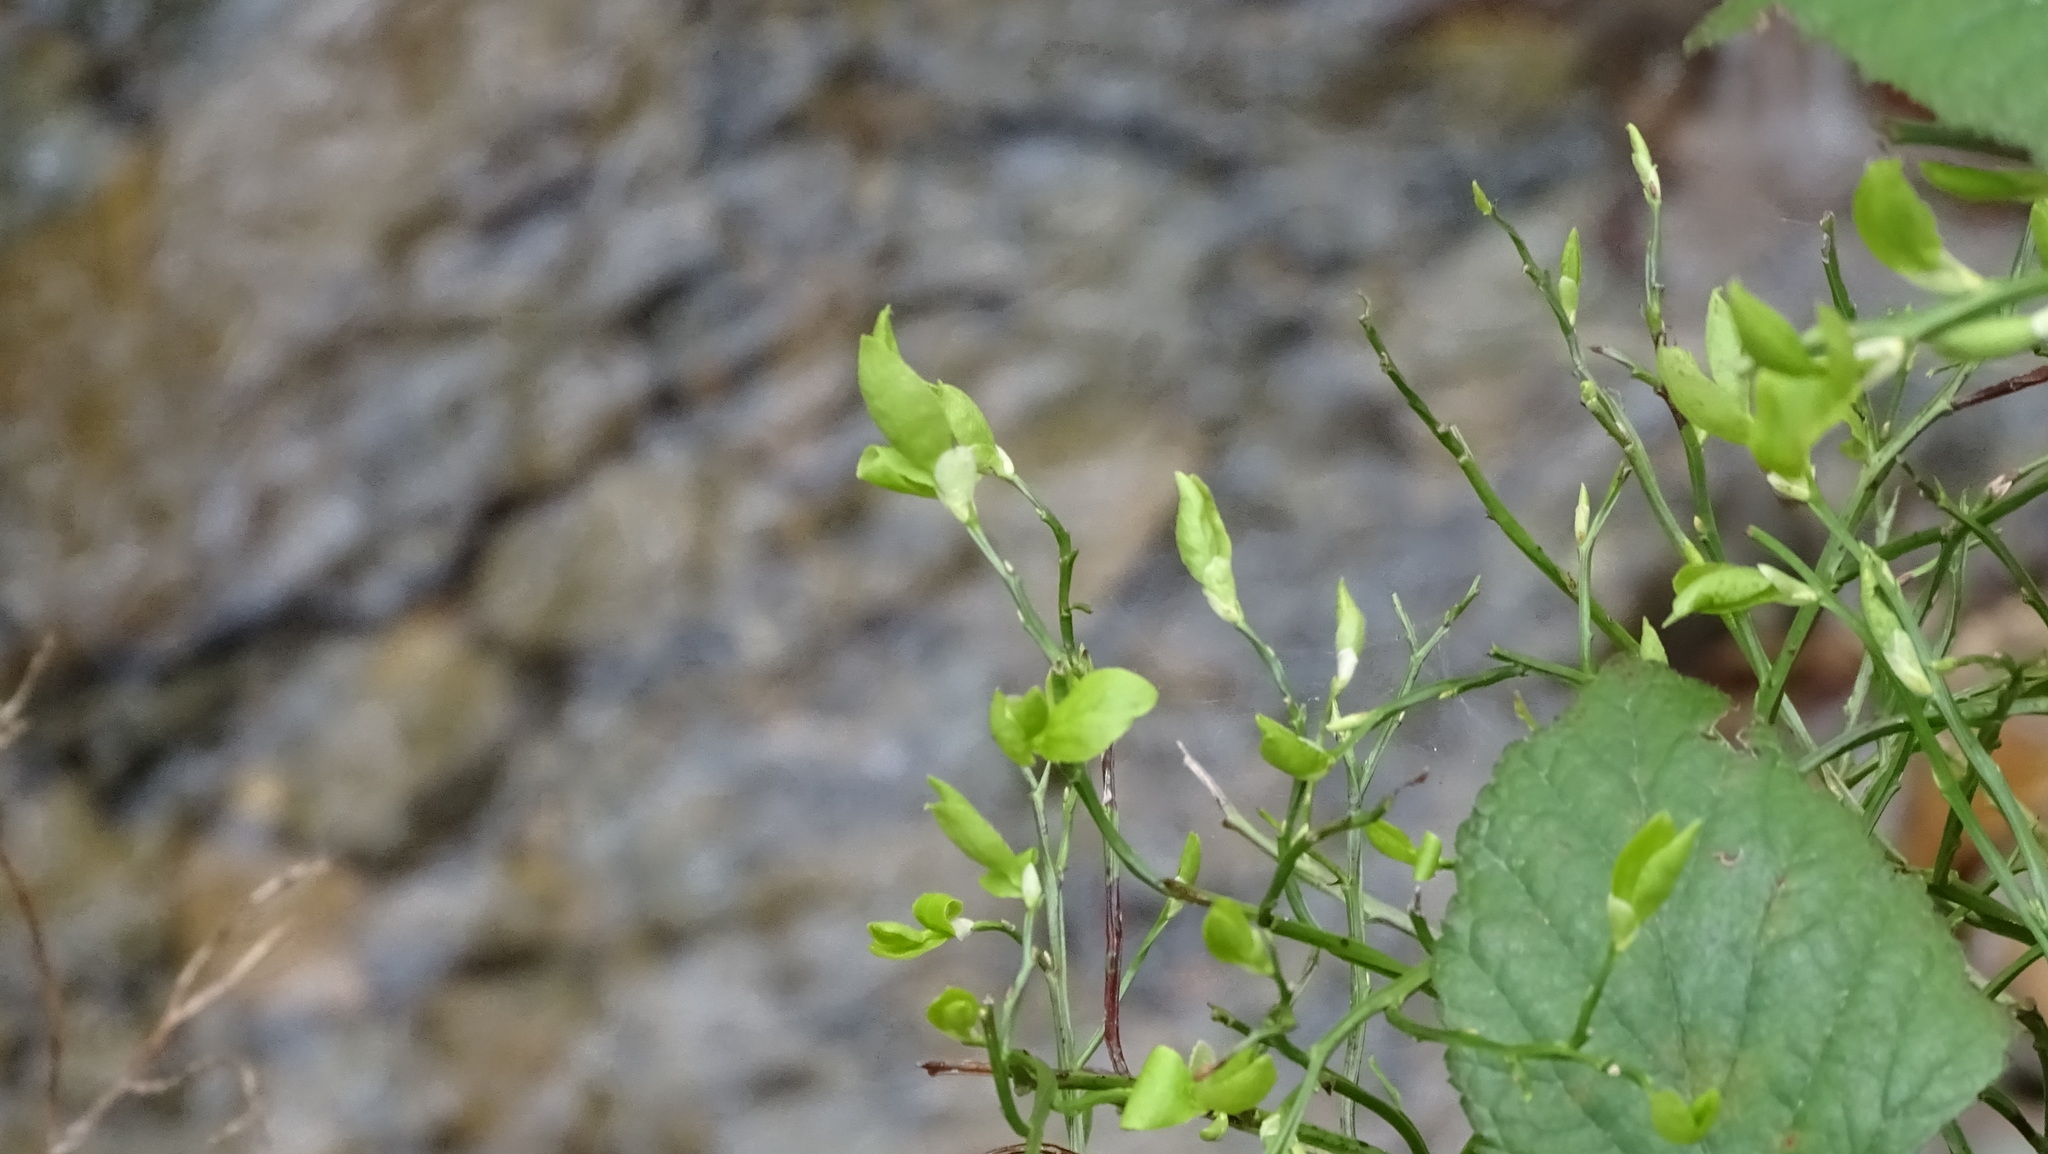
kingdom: Plantae
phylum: Tracheophyta
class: Magnoliopsida
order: Ericales
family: Ericaceae
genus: Vaccinium
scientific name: Vaccinium myrtillus
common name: Bilberry
